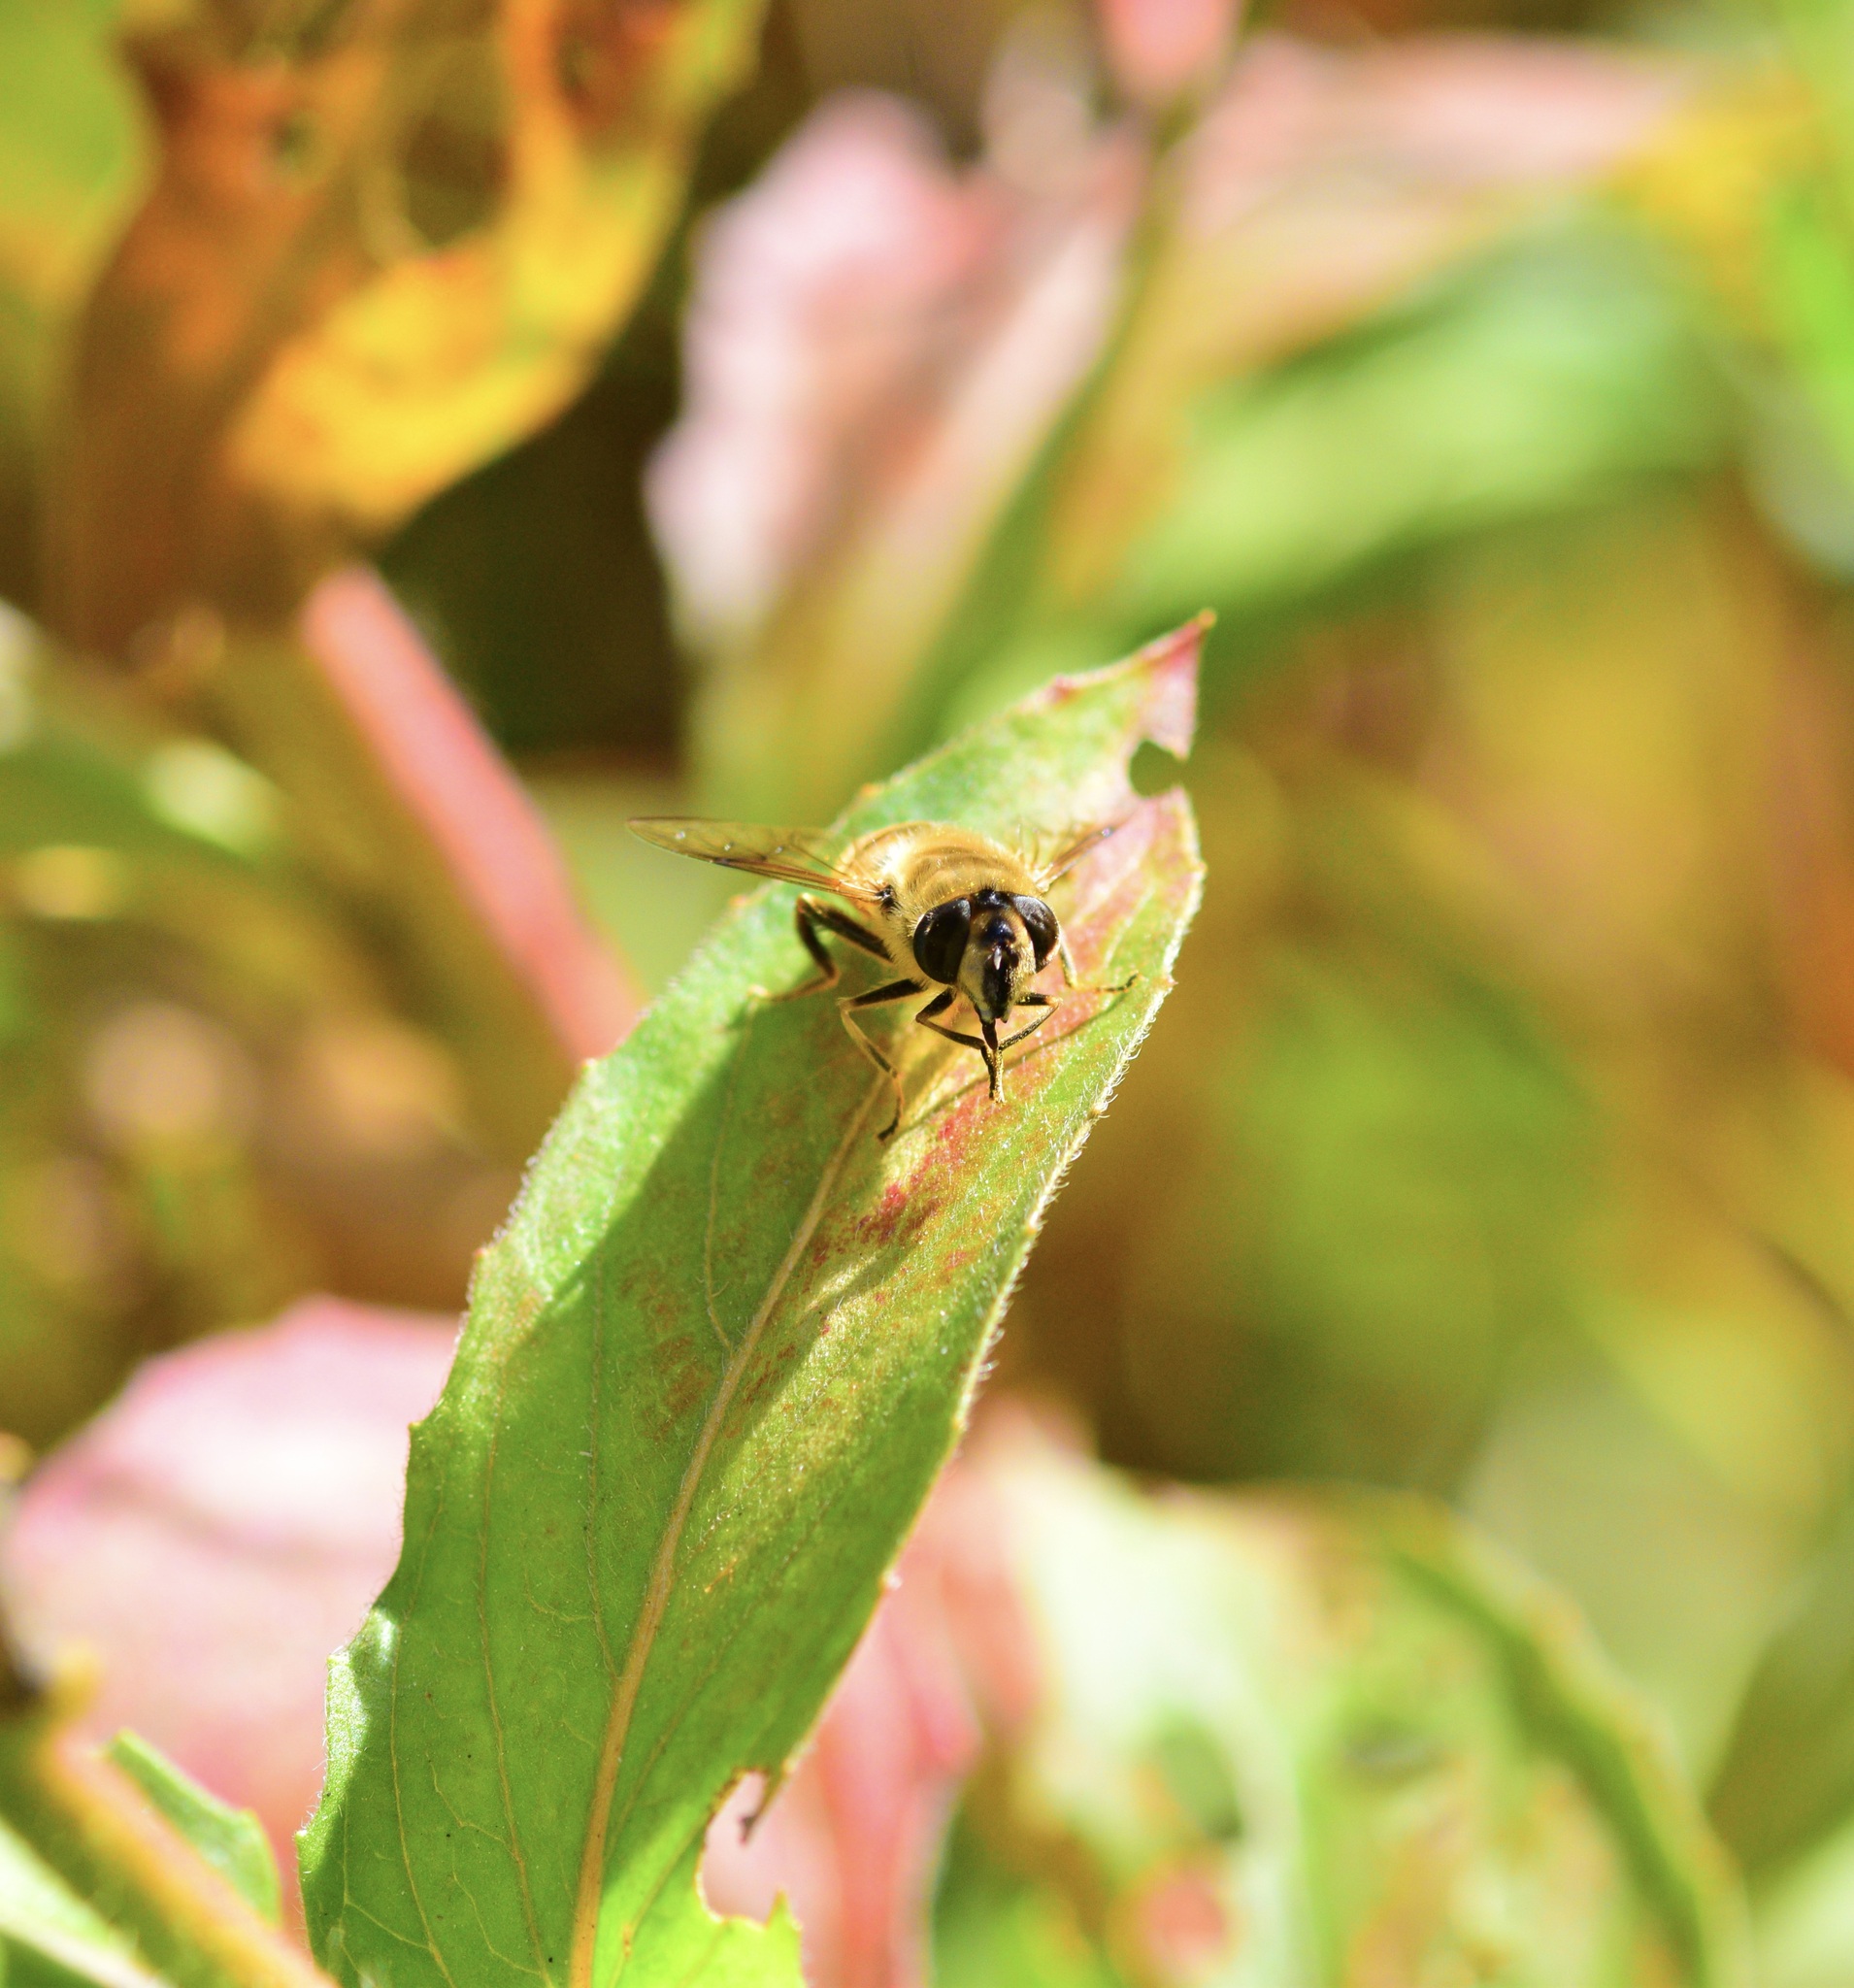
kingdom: Animalia
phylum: Arthropoda
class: Insecta
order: Diptera
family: Syrphidae
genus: Eristalis
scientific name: Eristalis tenax
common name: Drone fly
